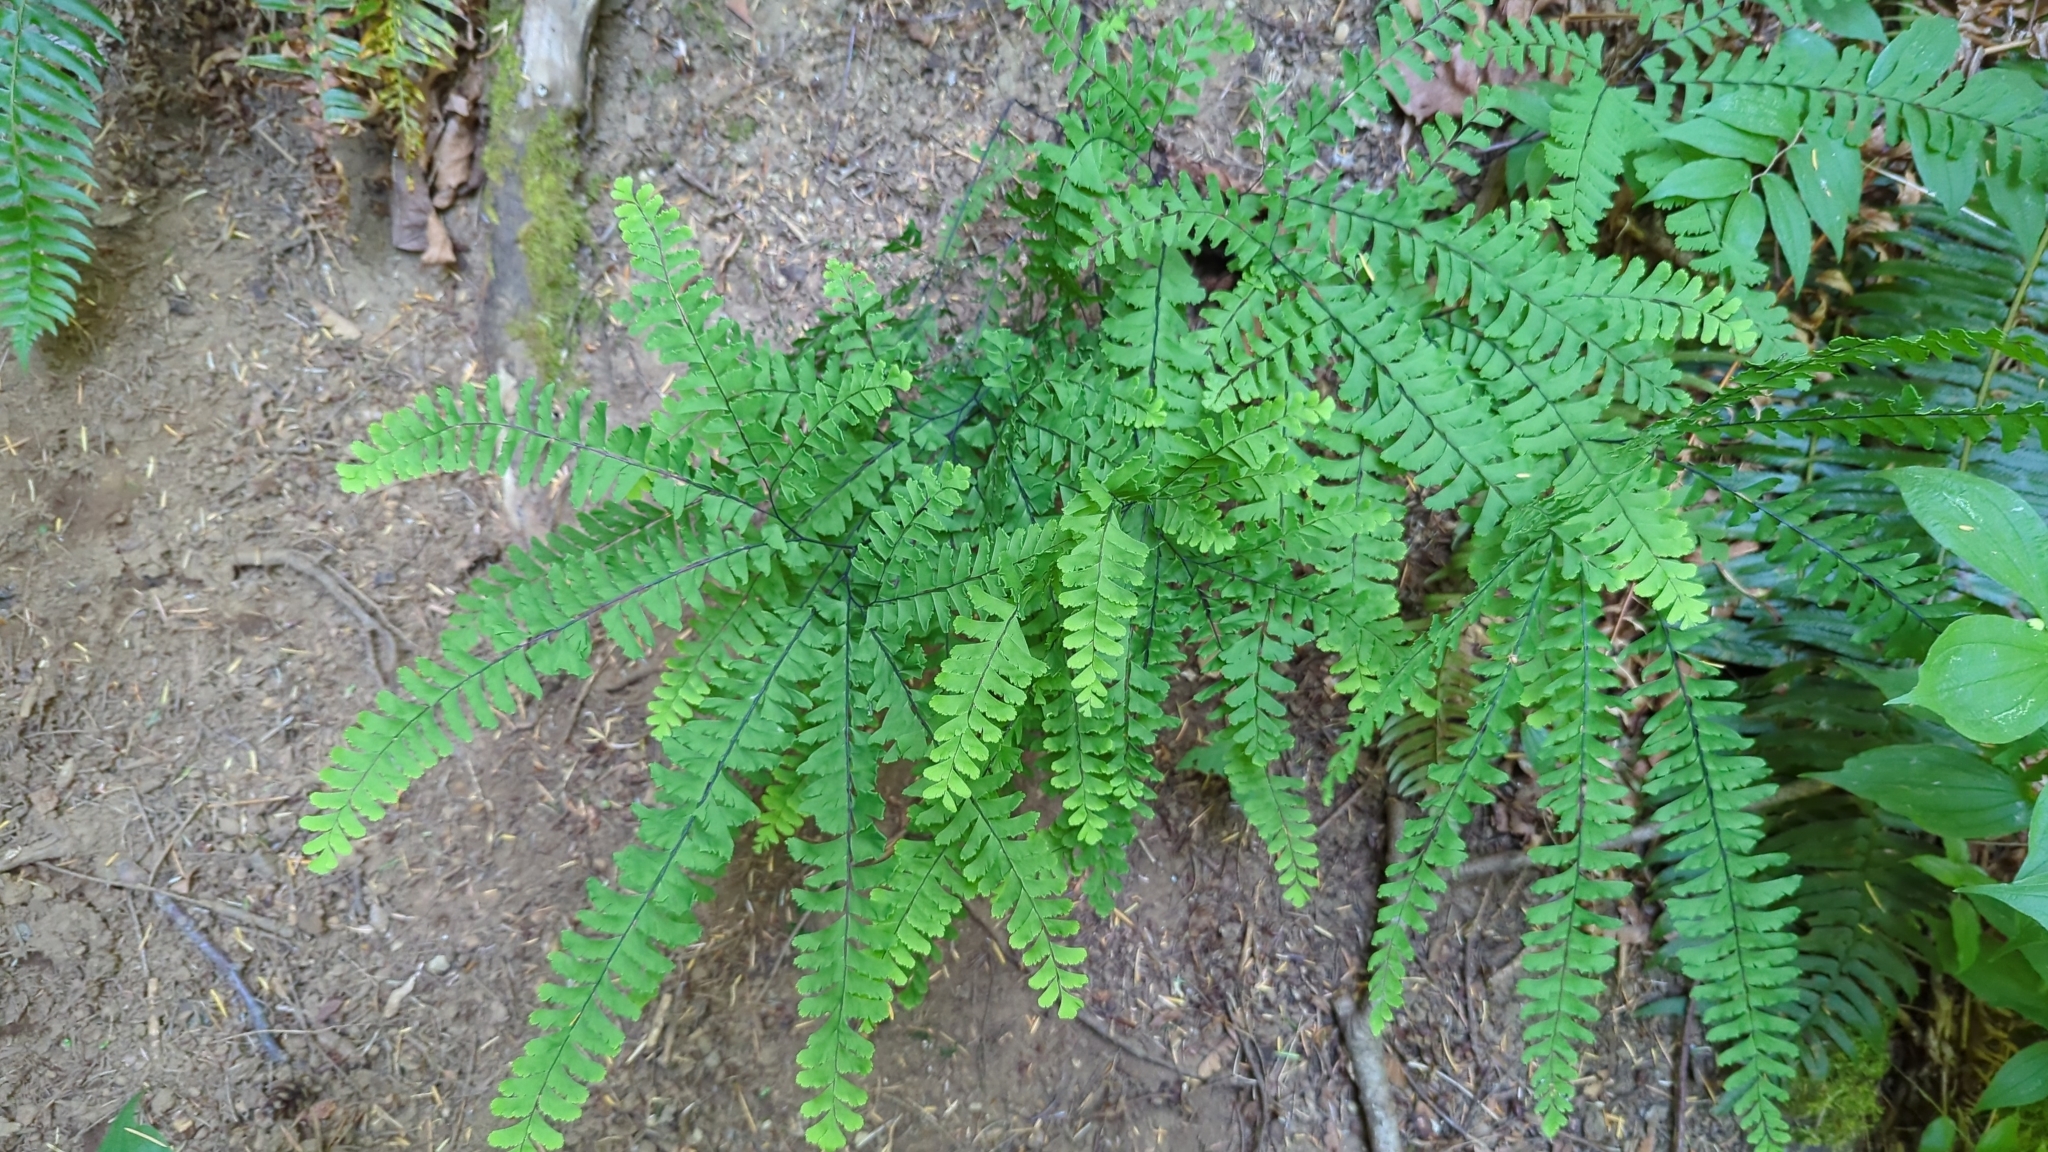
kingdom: Plantae
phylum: Tracheophyta
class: Polypodiopsida
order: Polypodiales
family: Pteridaceae
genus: Adiantum
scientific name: Adiantum aleuticum
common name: Aleutian maidenhair fern
